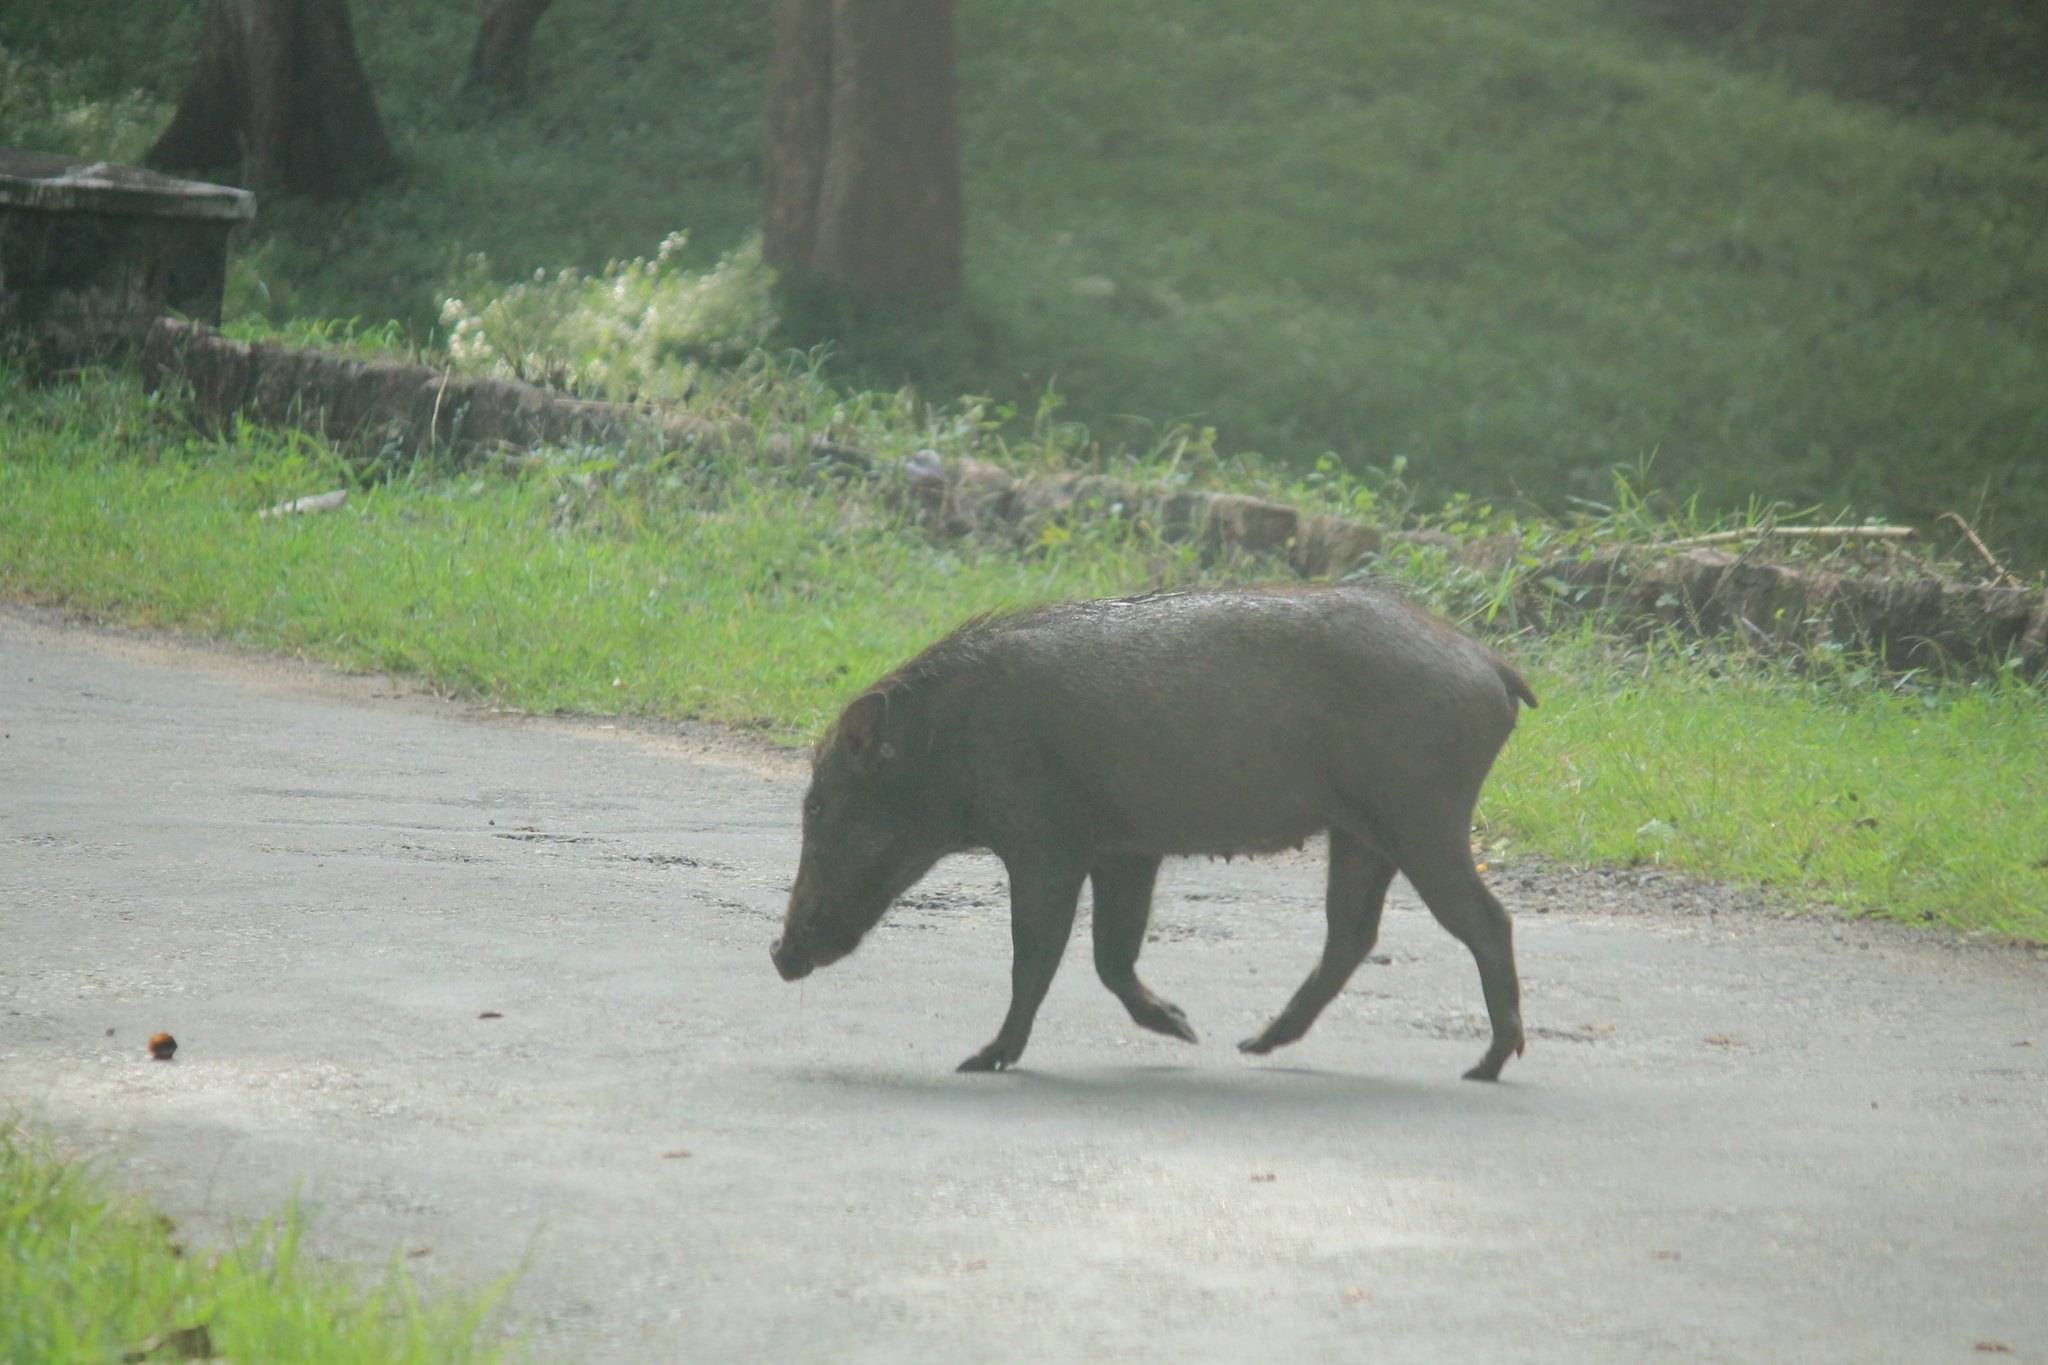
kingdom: Animalia
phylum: Chordata
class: Mammalia
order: Artiodactyla
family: Suidae
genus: Sus
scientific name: Sus scrofa
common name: Wild boar
